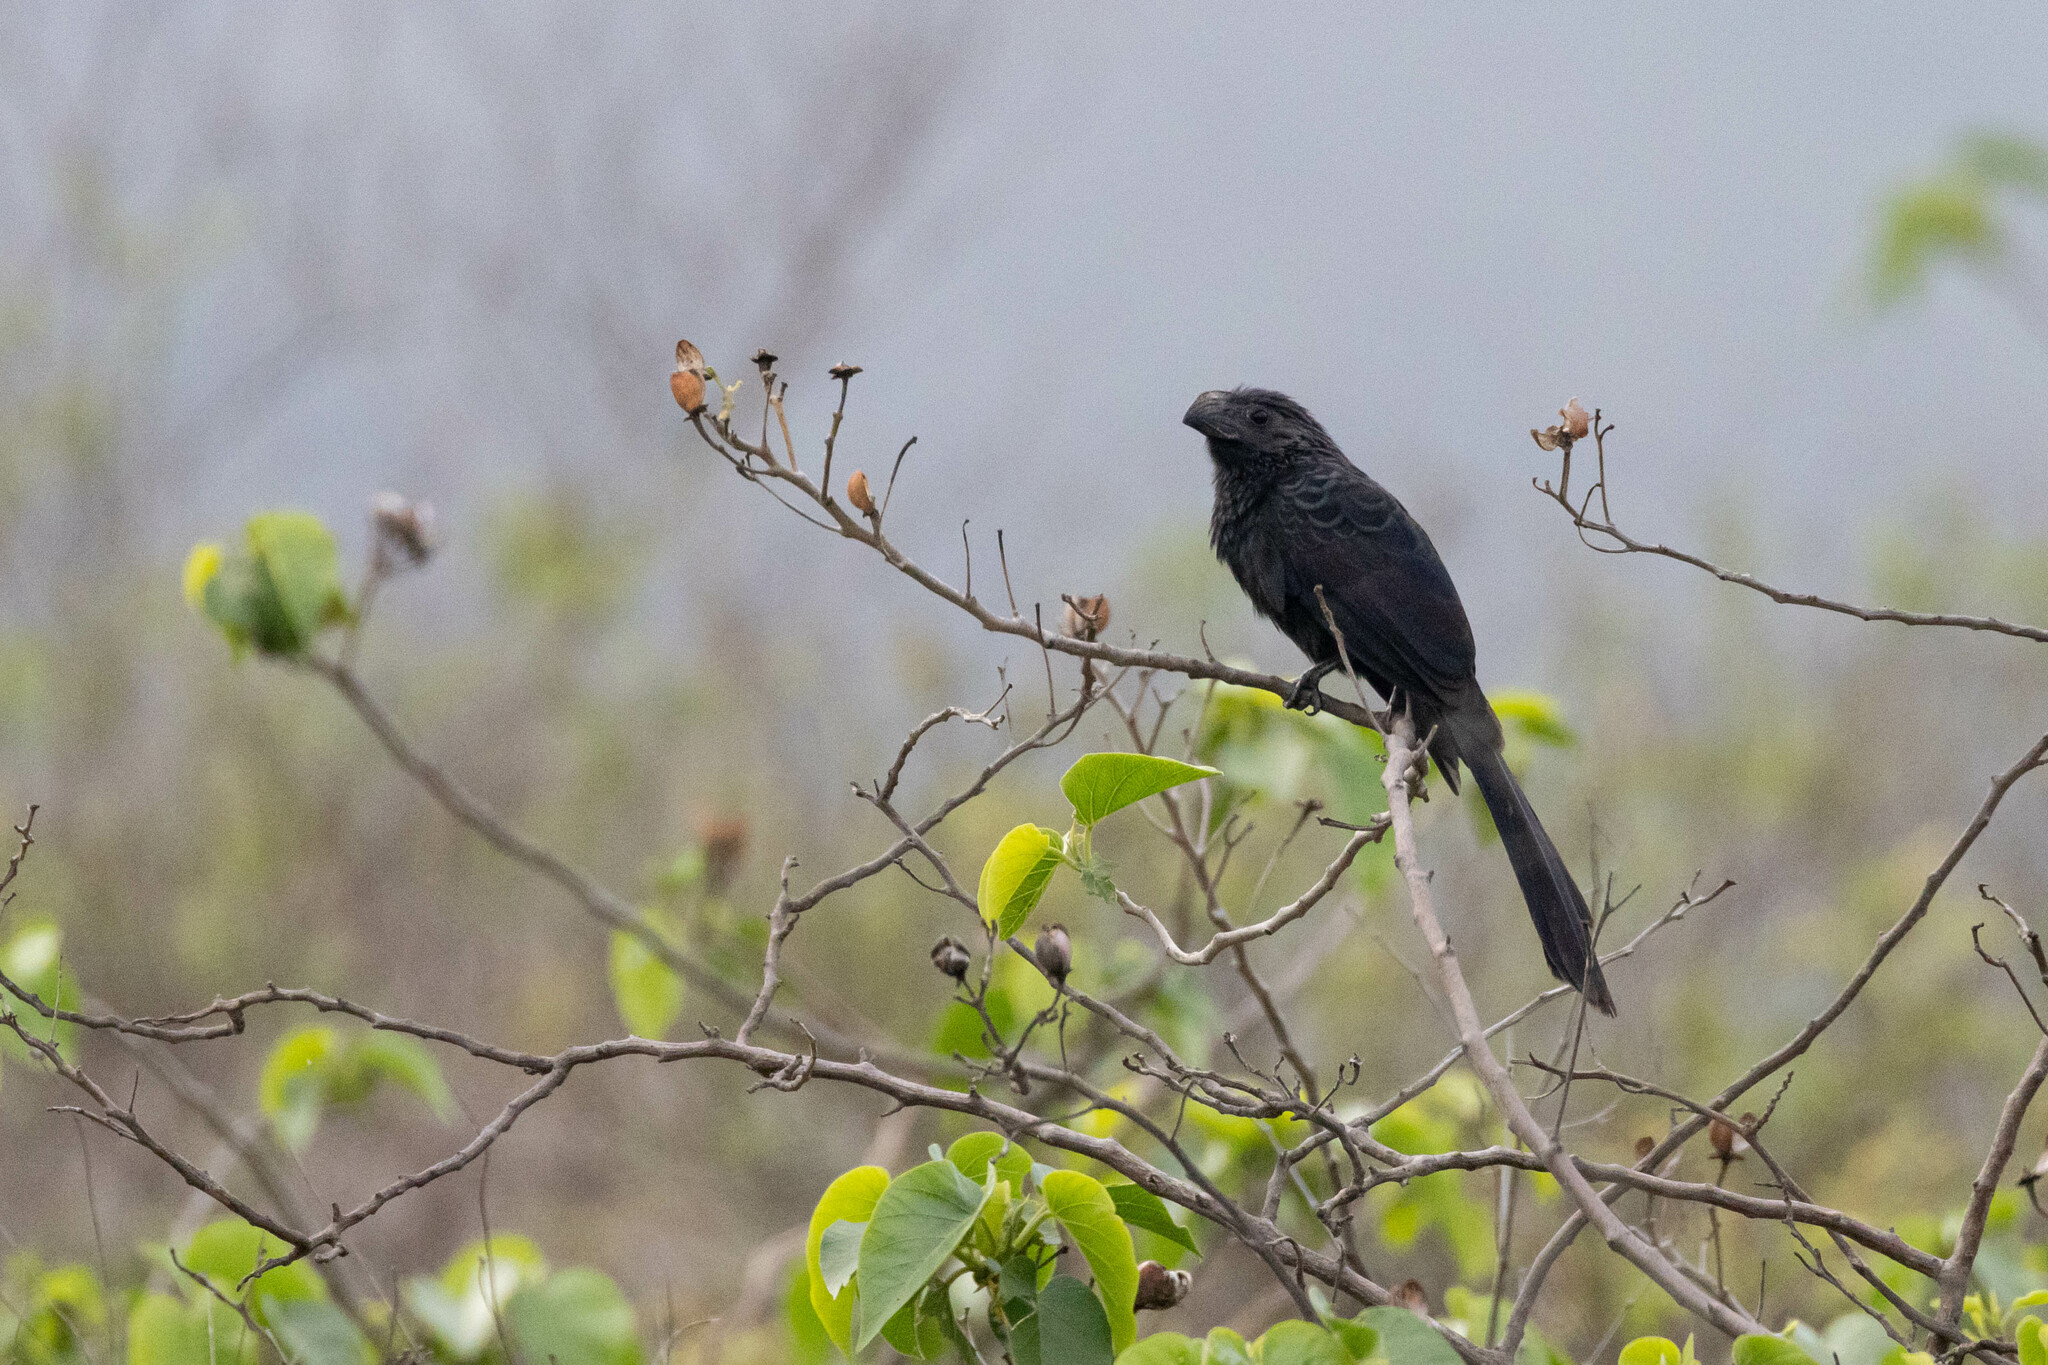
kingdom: Animalia
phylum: Chordata
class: Aves
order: Cuculiformes
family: Cuculidae
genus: Crotophaga
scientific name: Crotophaga sulcirostris
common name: Groove-billed ani
